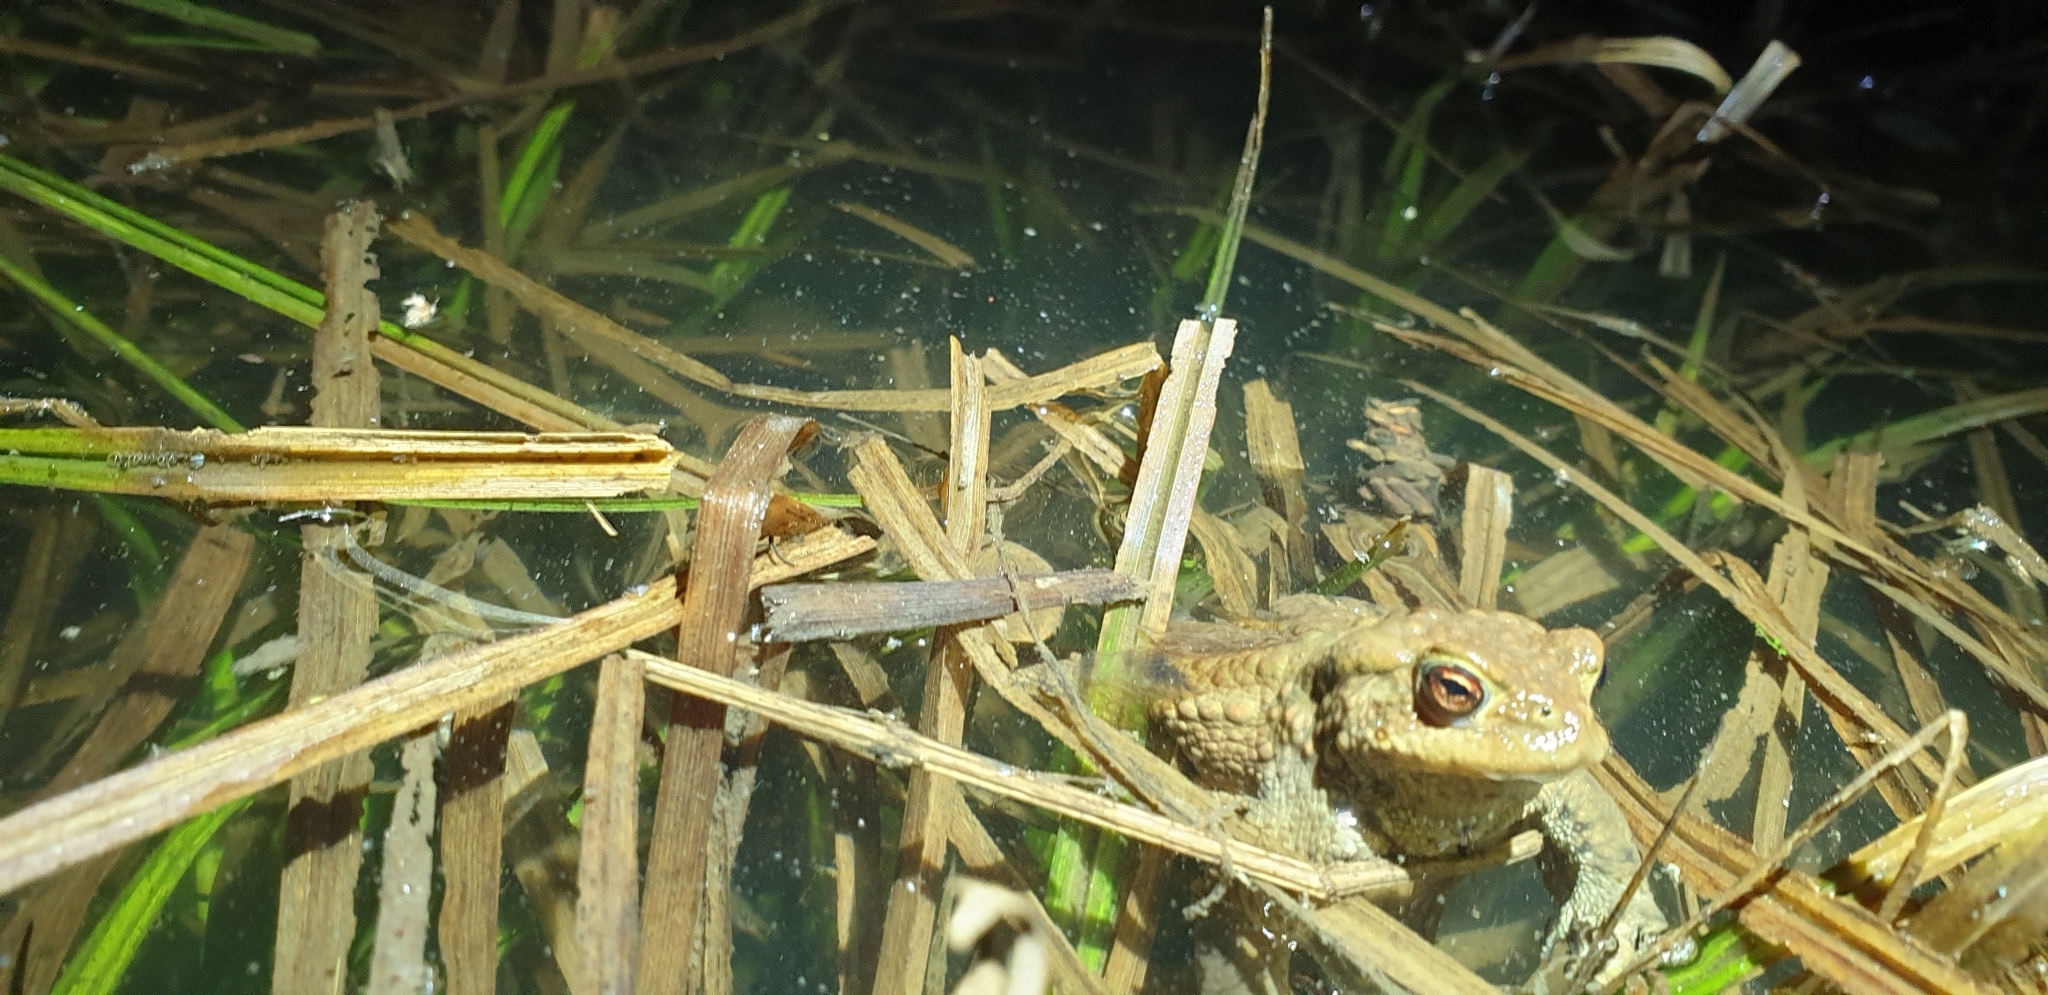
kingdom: Animalia
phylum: Chordata
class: Amphibia
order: Anura
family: Bufonidae
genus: Bufo
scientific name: Bufo bufo
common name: Common toad
